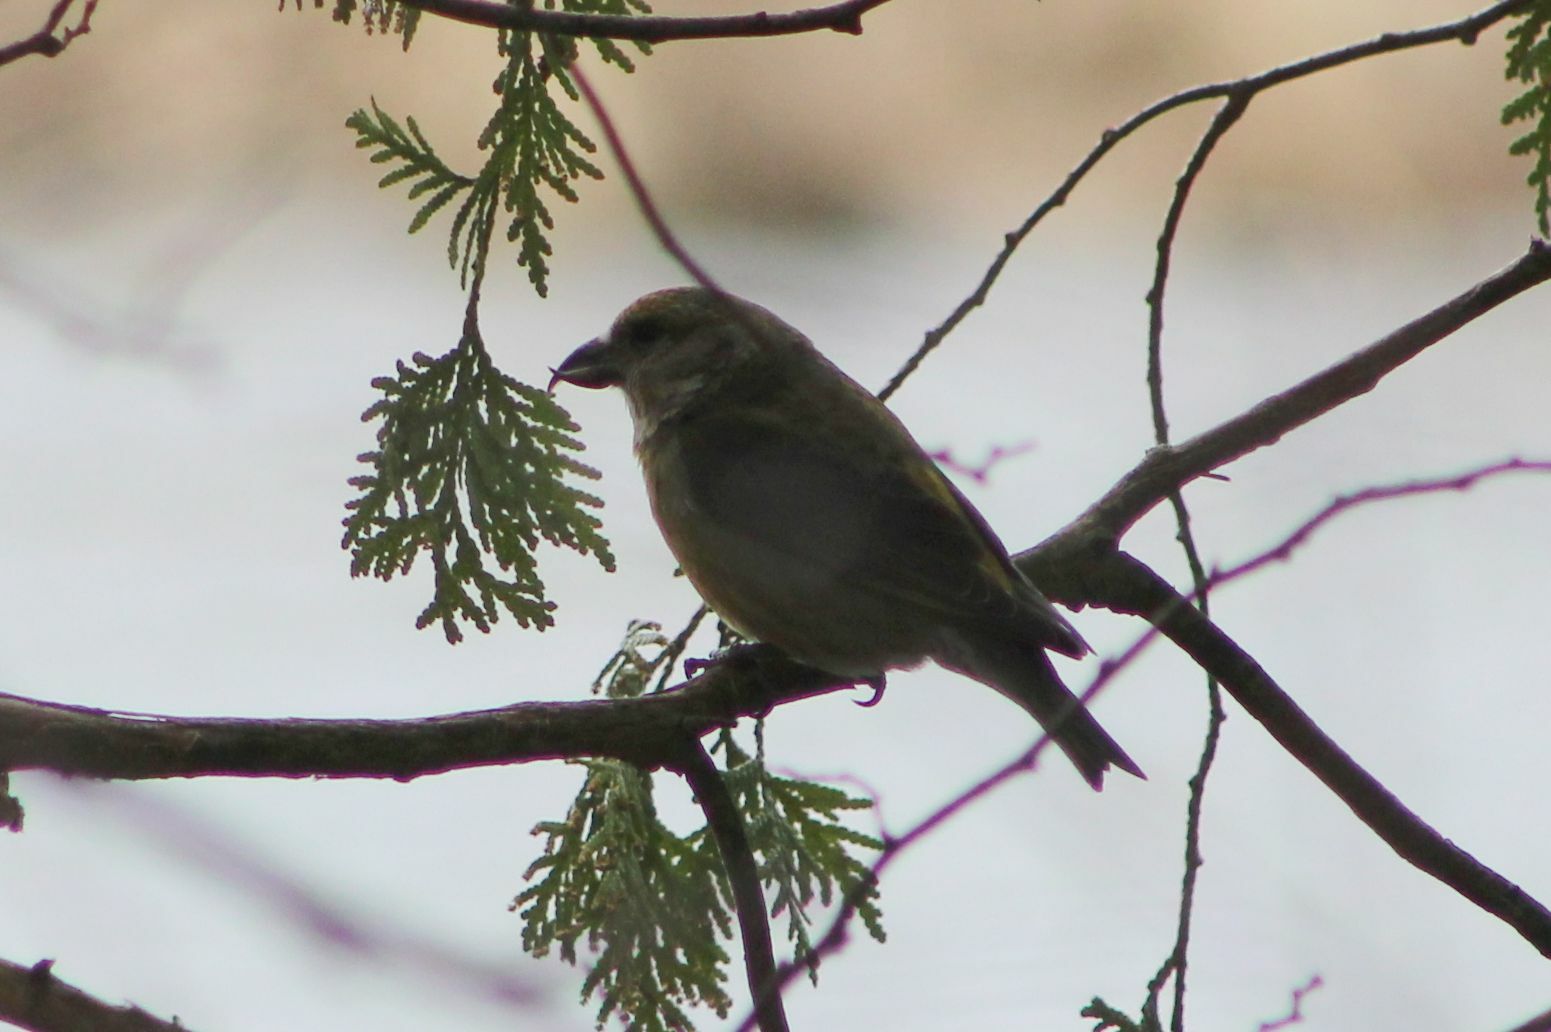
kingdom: Animalia
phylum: Chordata
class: Aves
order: Passeriformes
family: Fringillidae
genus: Loxia
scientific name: Loxia curvirostra
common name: Red crossbill
